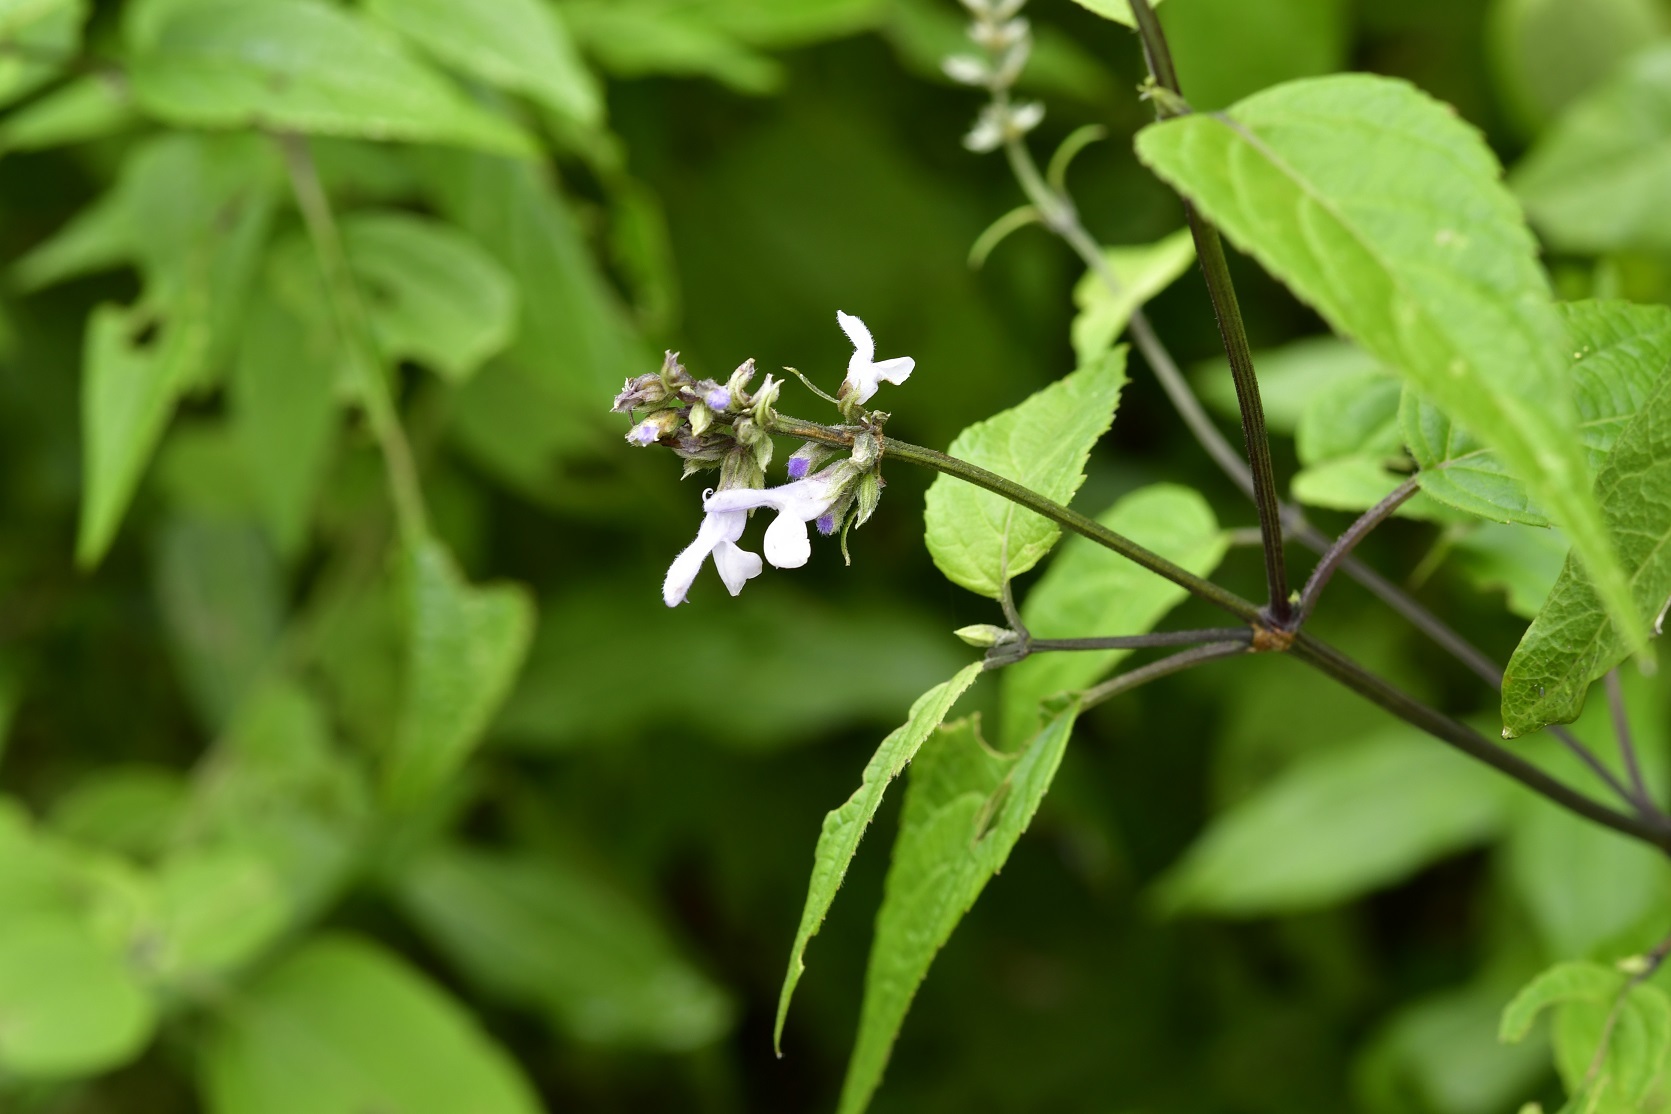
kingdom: Plantae
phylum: Tracheophyta
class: Magnoliopsida
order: Lamiales
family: Lamiaceae
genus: Salvia
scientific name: Salvia connivens
